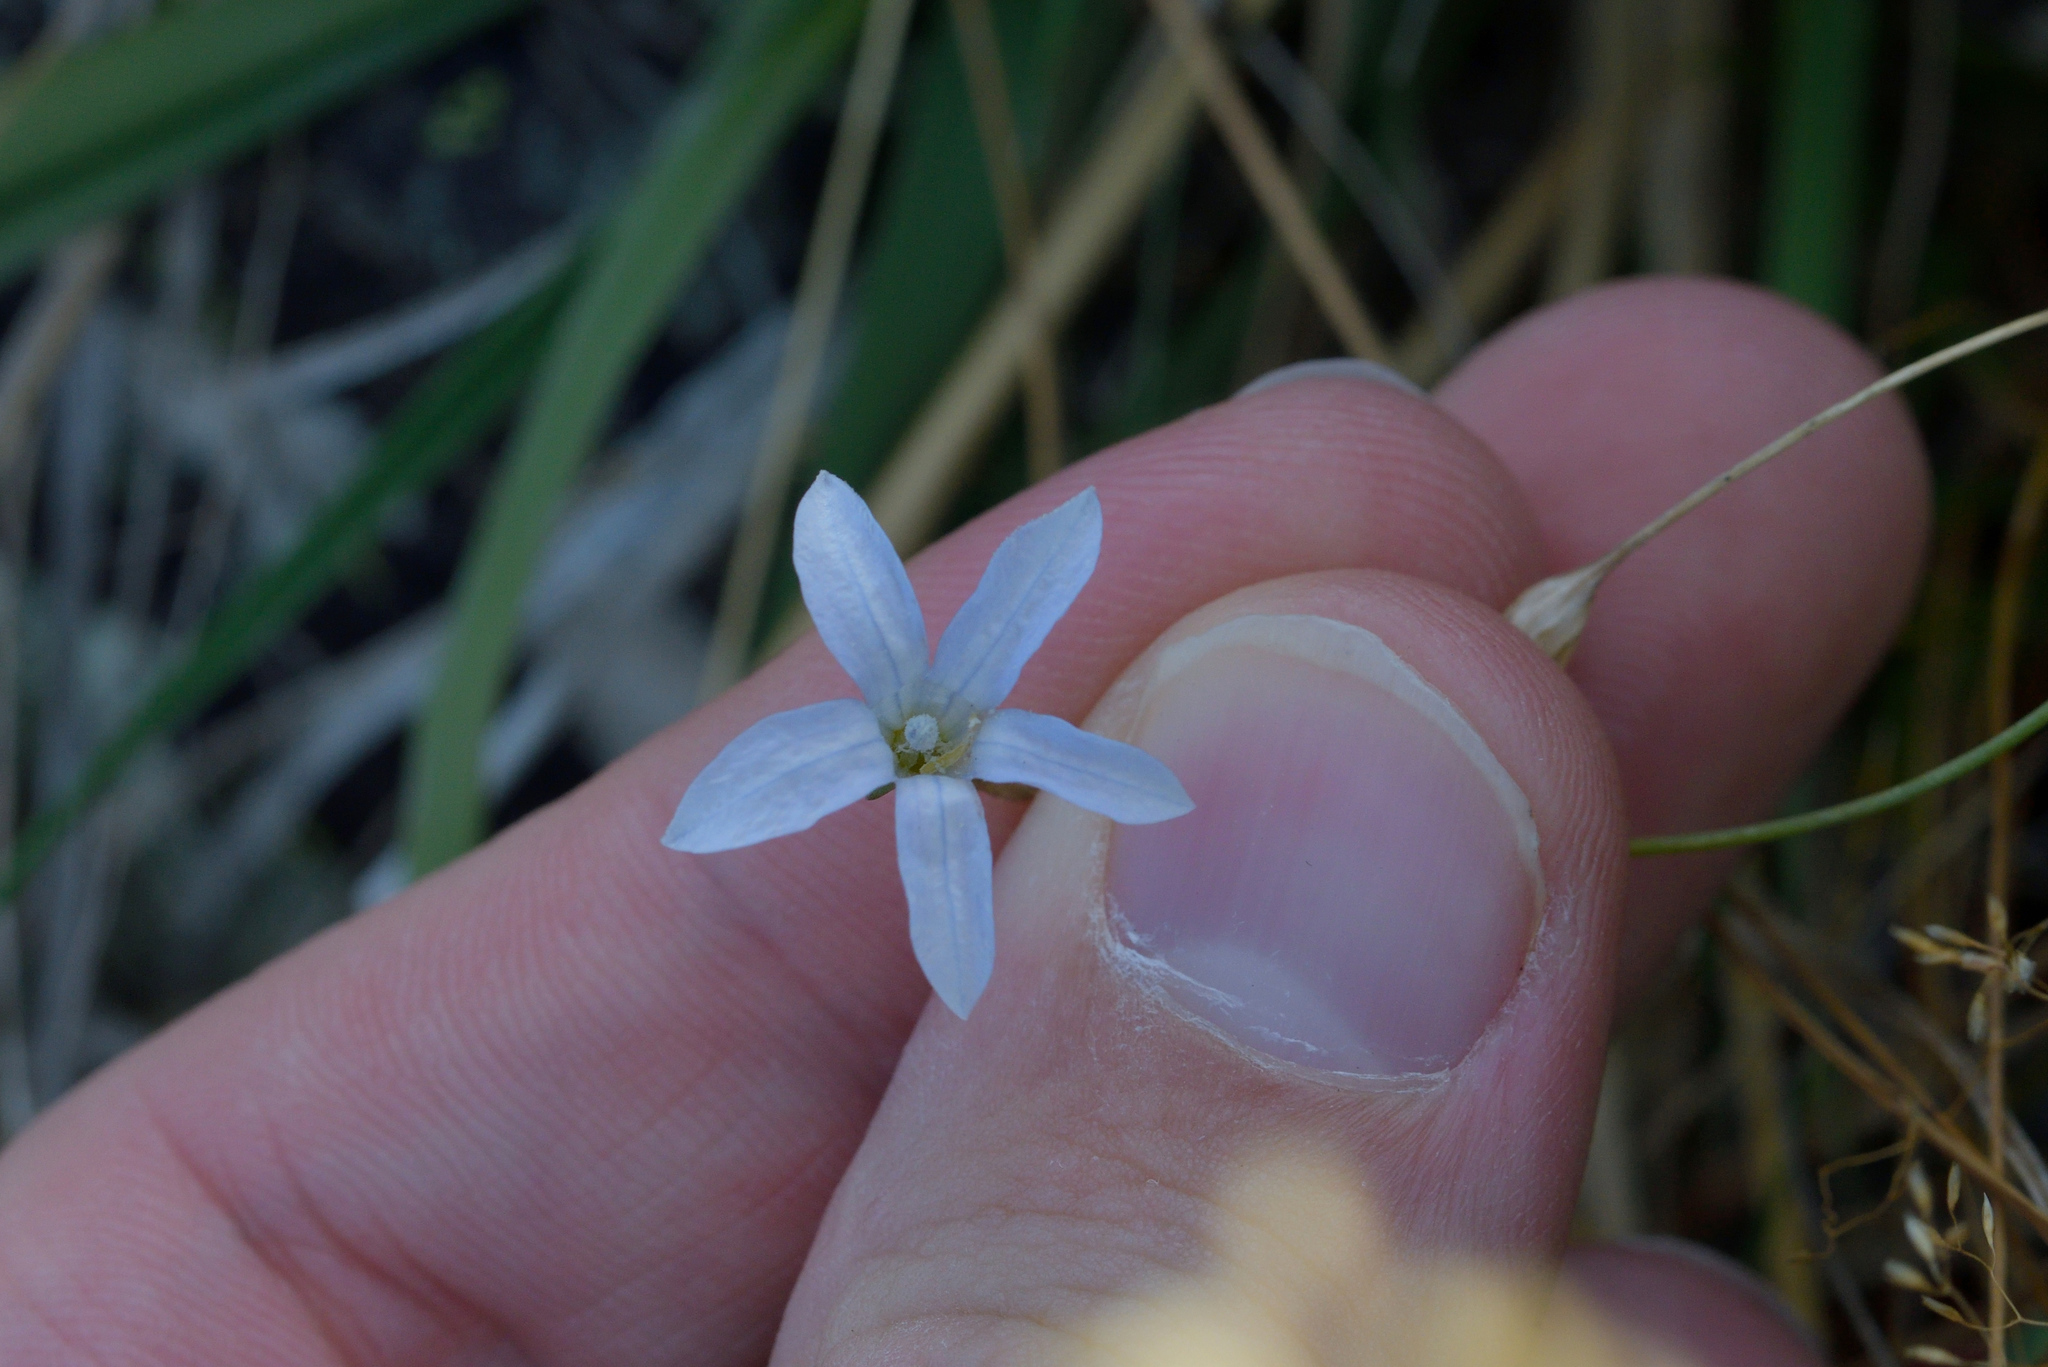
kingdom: Plantae
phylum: Tracheophyta
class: Magnoliopsida
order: Asterales
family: Campanulaceae
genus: Wahlenbergia
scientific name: Wahlenbergia albomarginata
